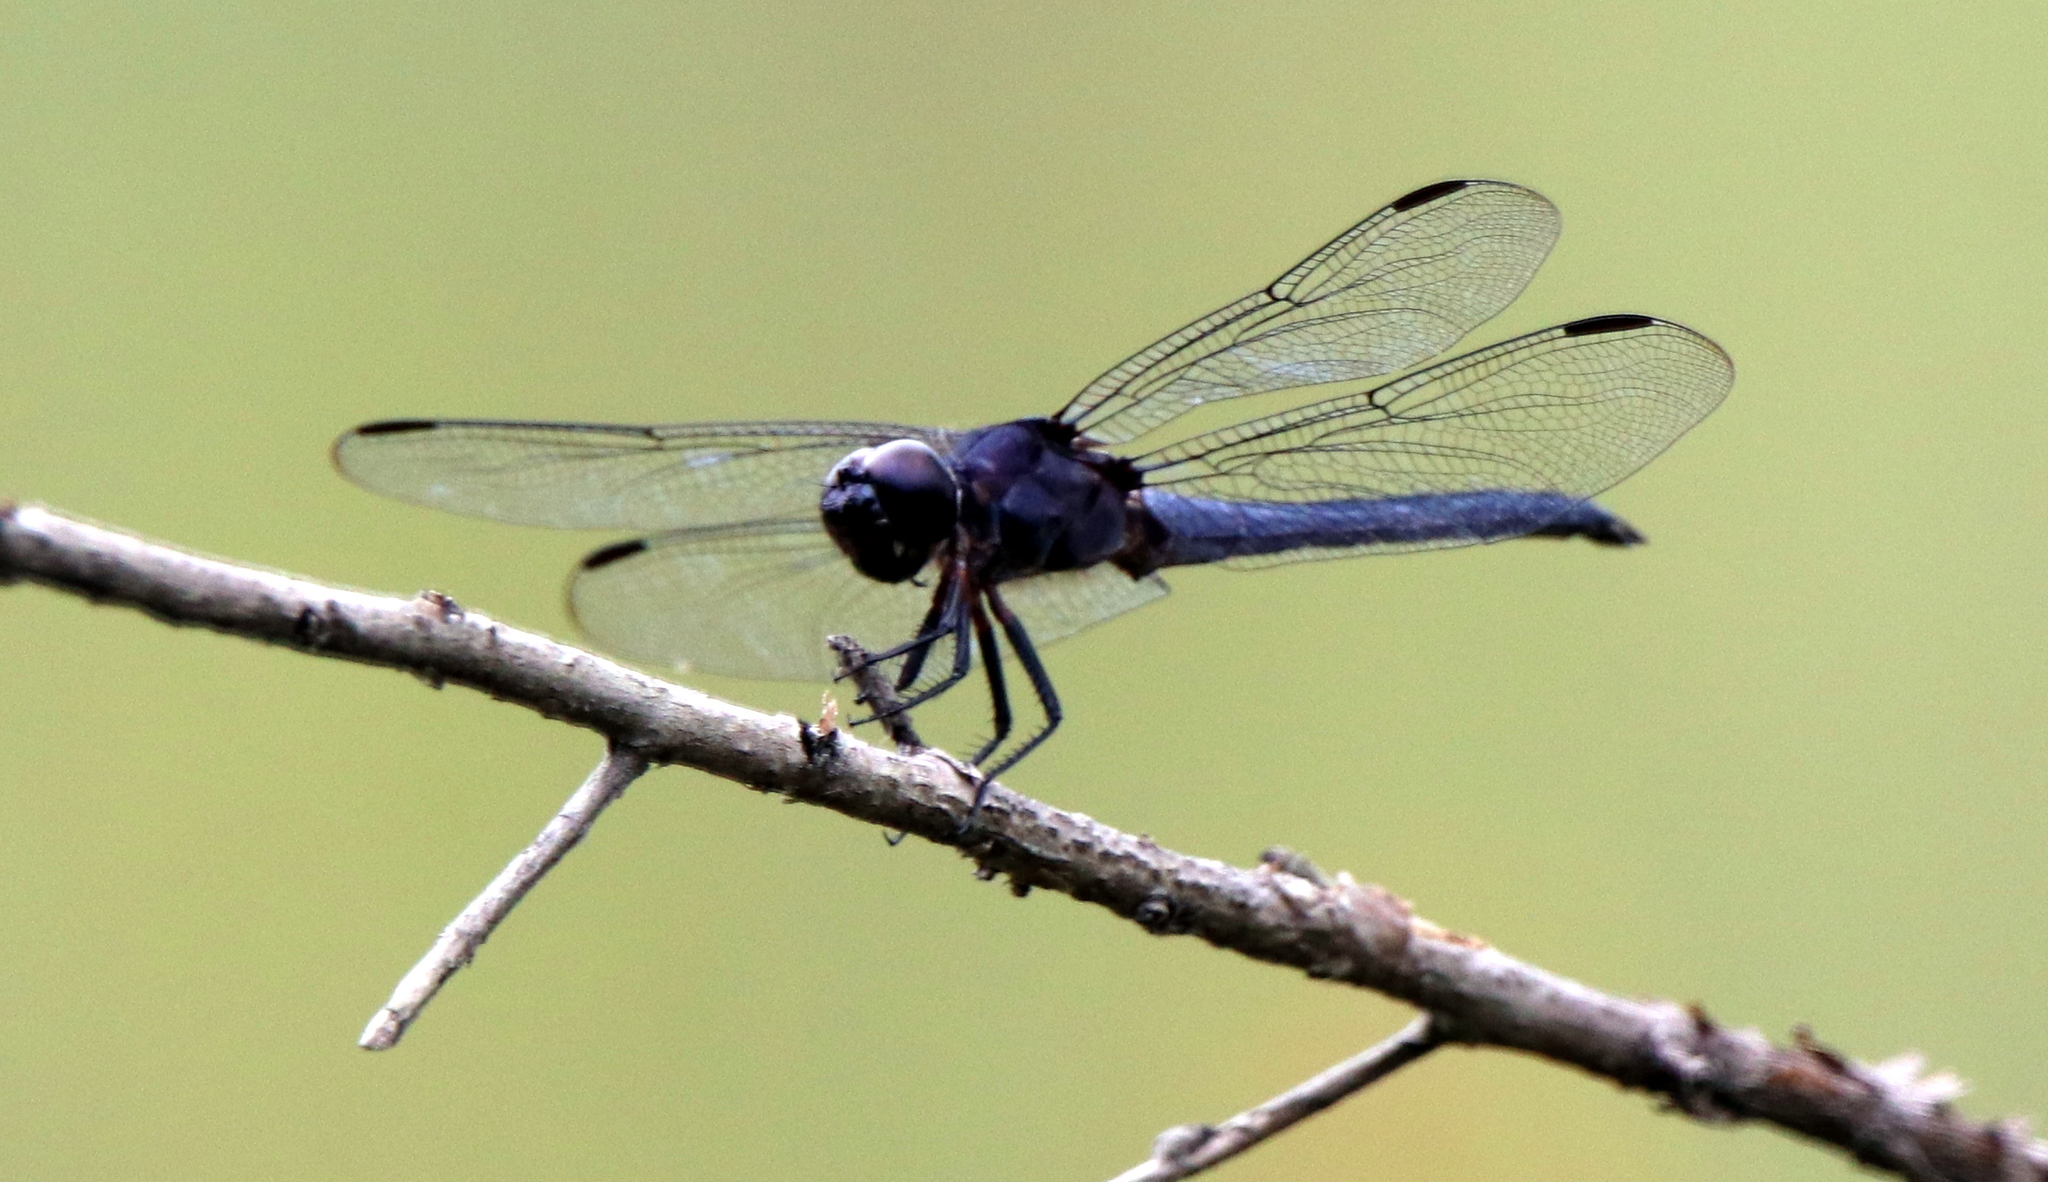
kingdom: Animalia
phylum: Arthropoda
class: Insecta
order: Odonata
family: Libellulidae
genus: Libellula
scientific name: Libellula incesta
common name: Slaty skimmer
